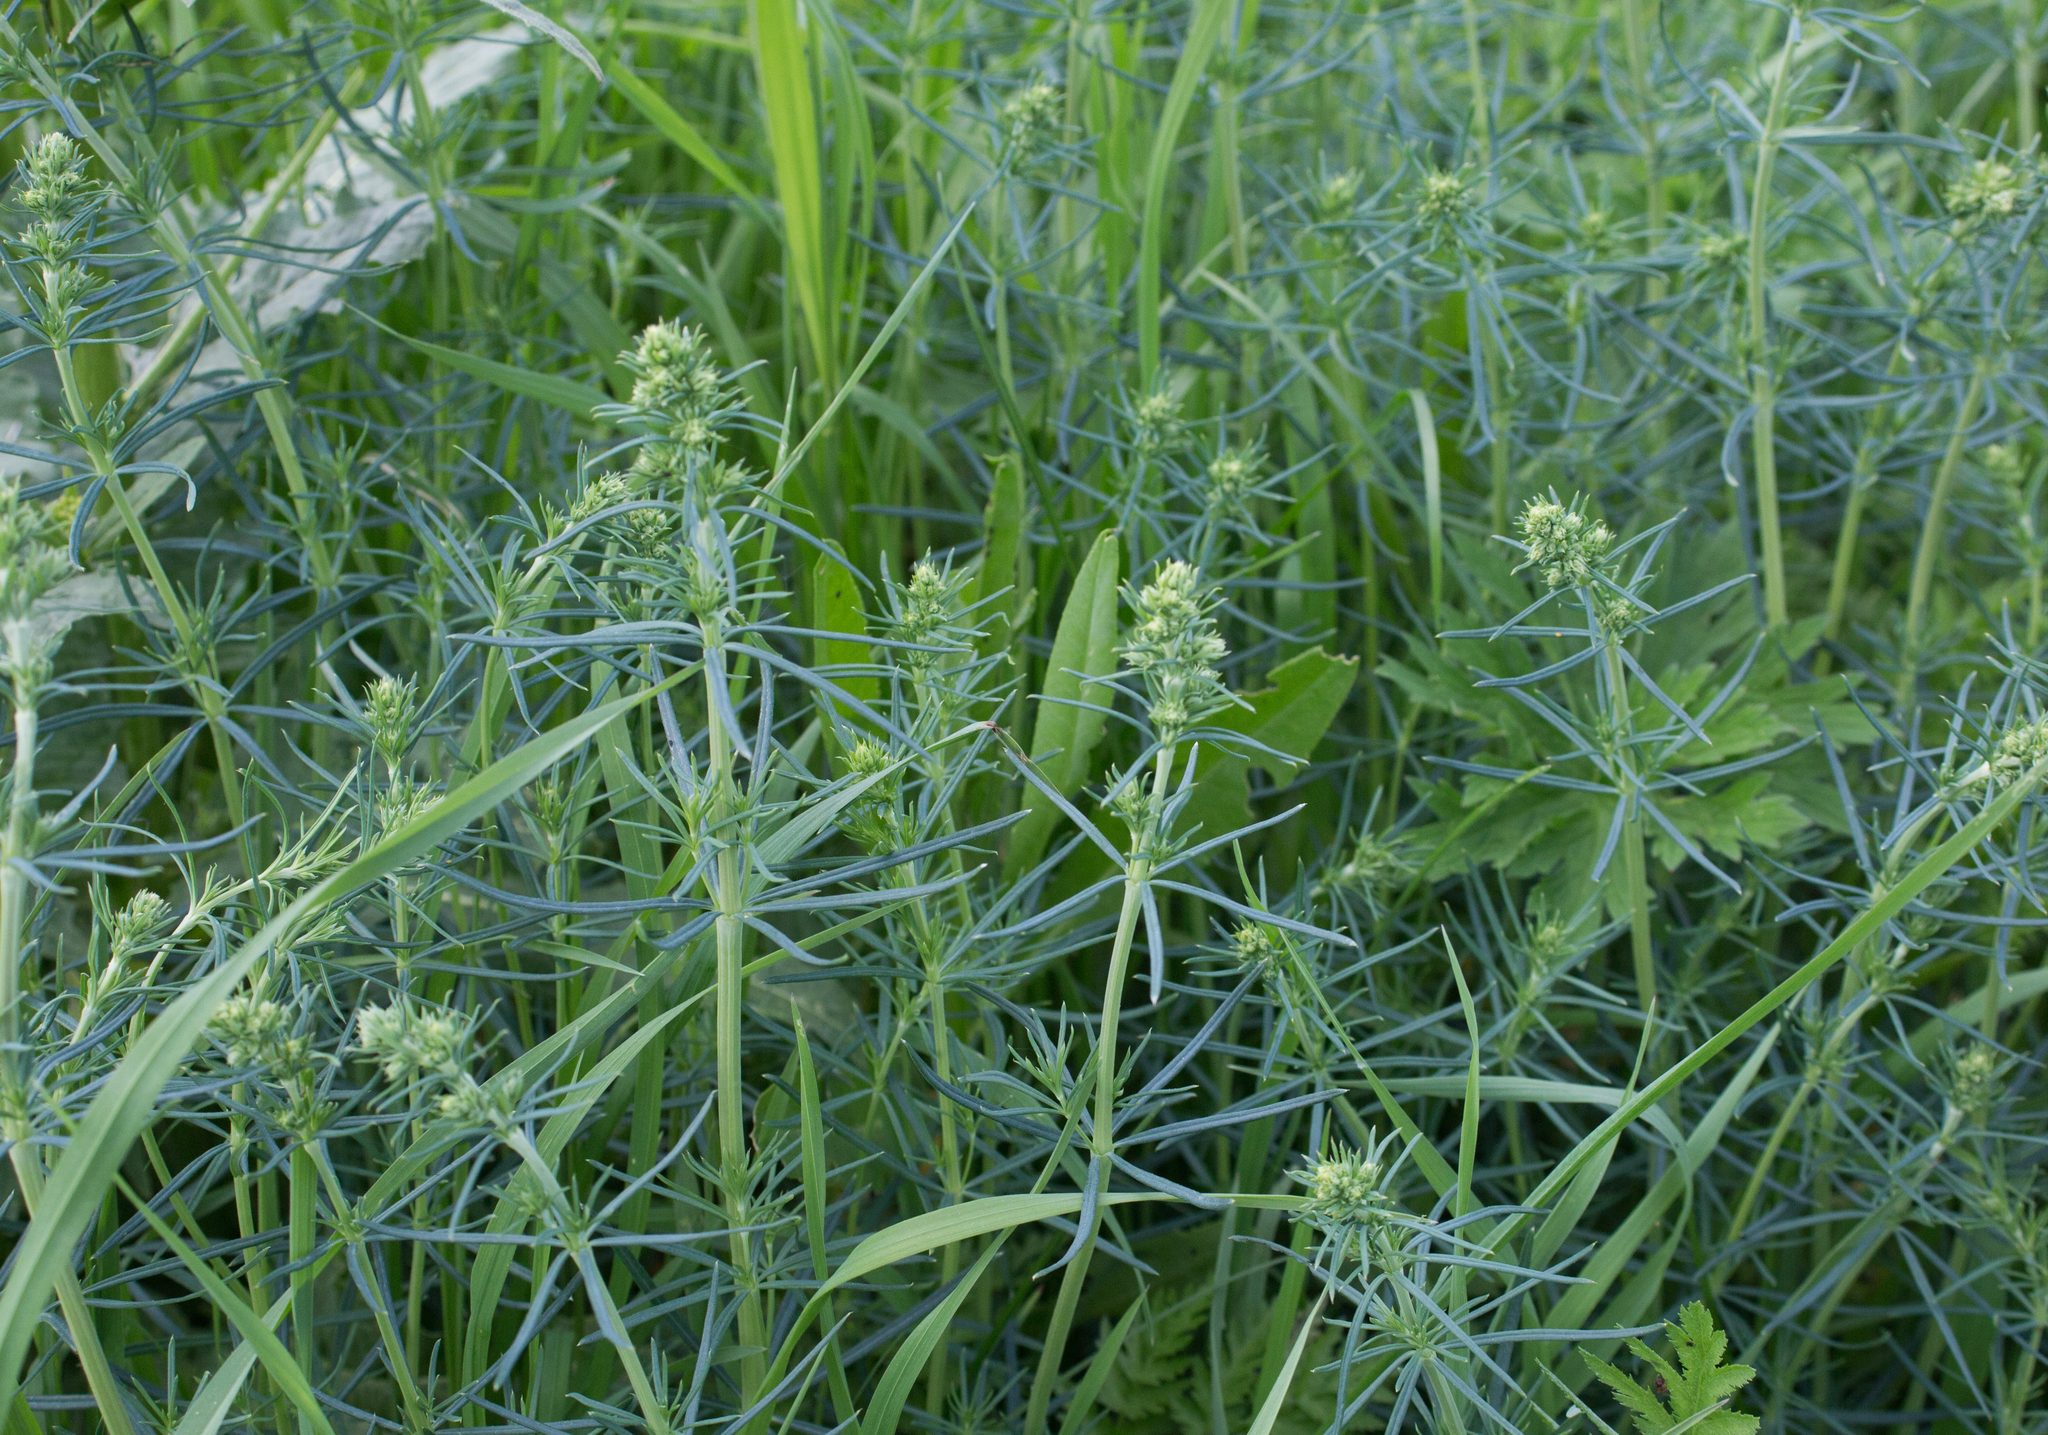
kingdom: Plantae
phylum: Tracheophyta
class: Magnoliopsida
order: Gentianales
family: Rubiaceae
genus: Galium
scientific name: Galium verum
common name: Lady's bedstraw
